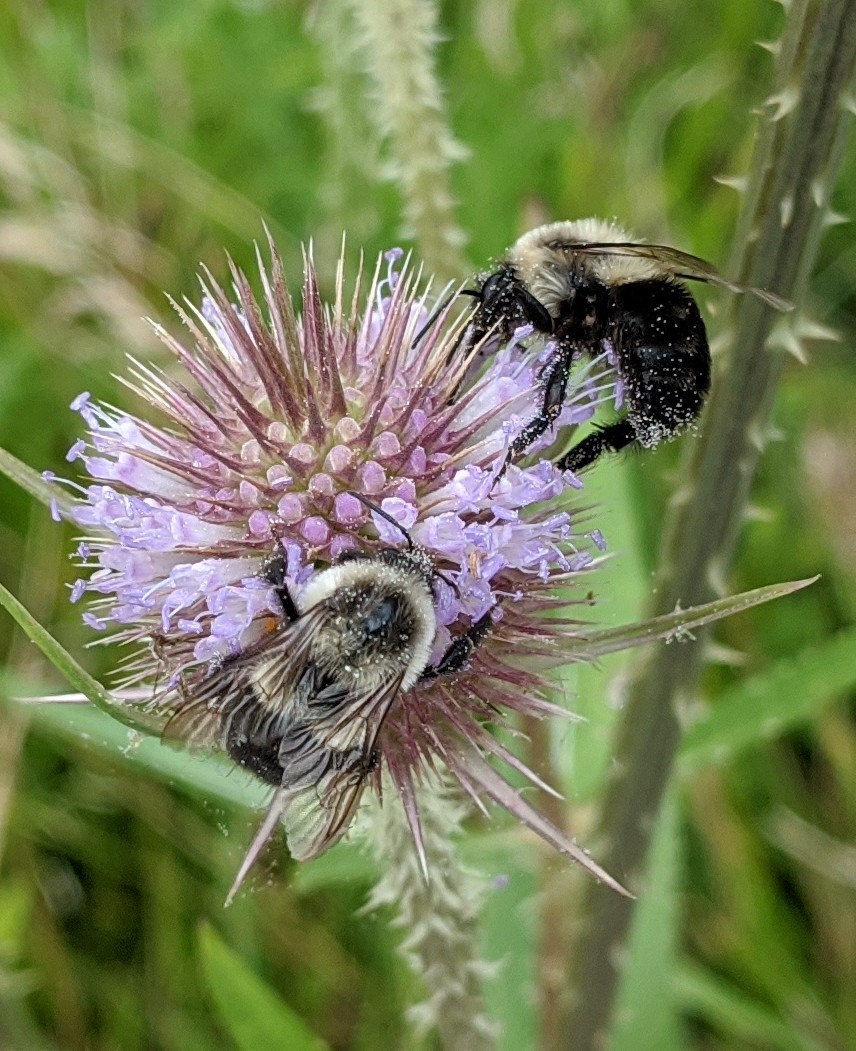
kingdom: Animalia
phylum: Arthropoda
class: Insecta
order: Hymenoptera
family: Apidae
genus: Bombus
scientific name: Bombus impatiens
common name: Common eastern bumble bee
